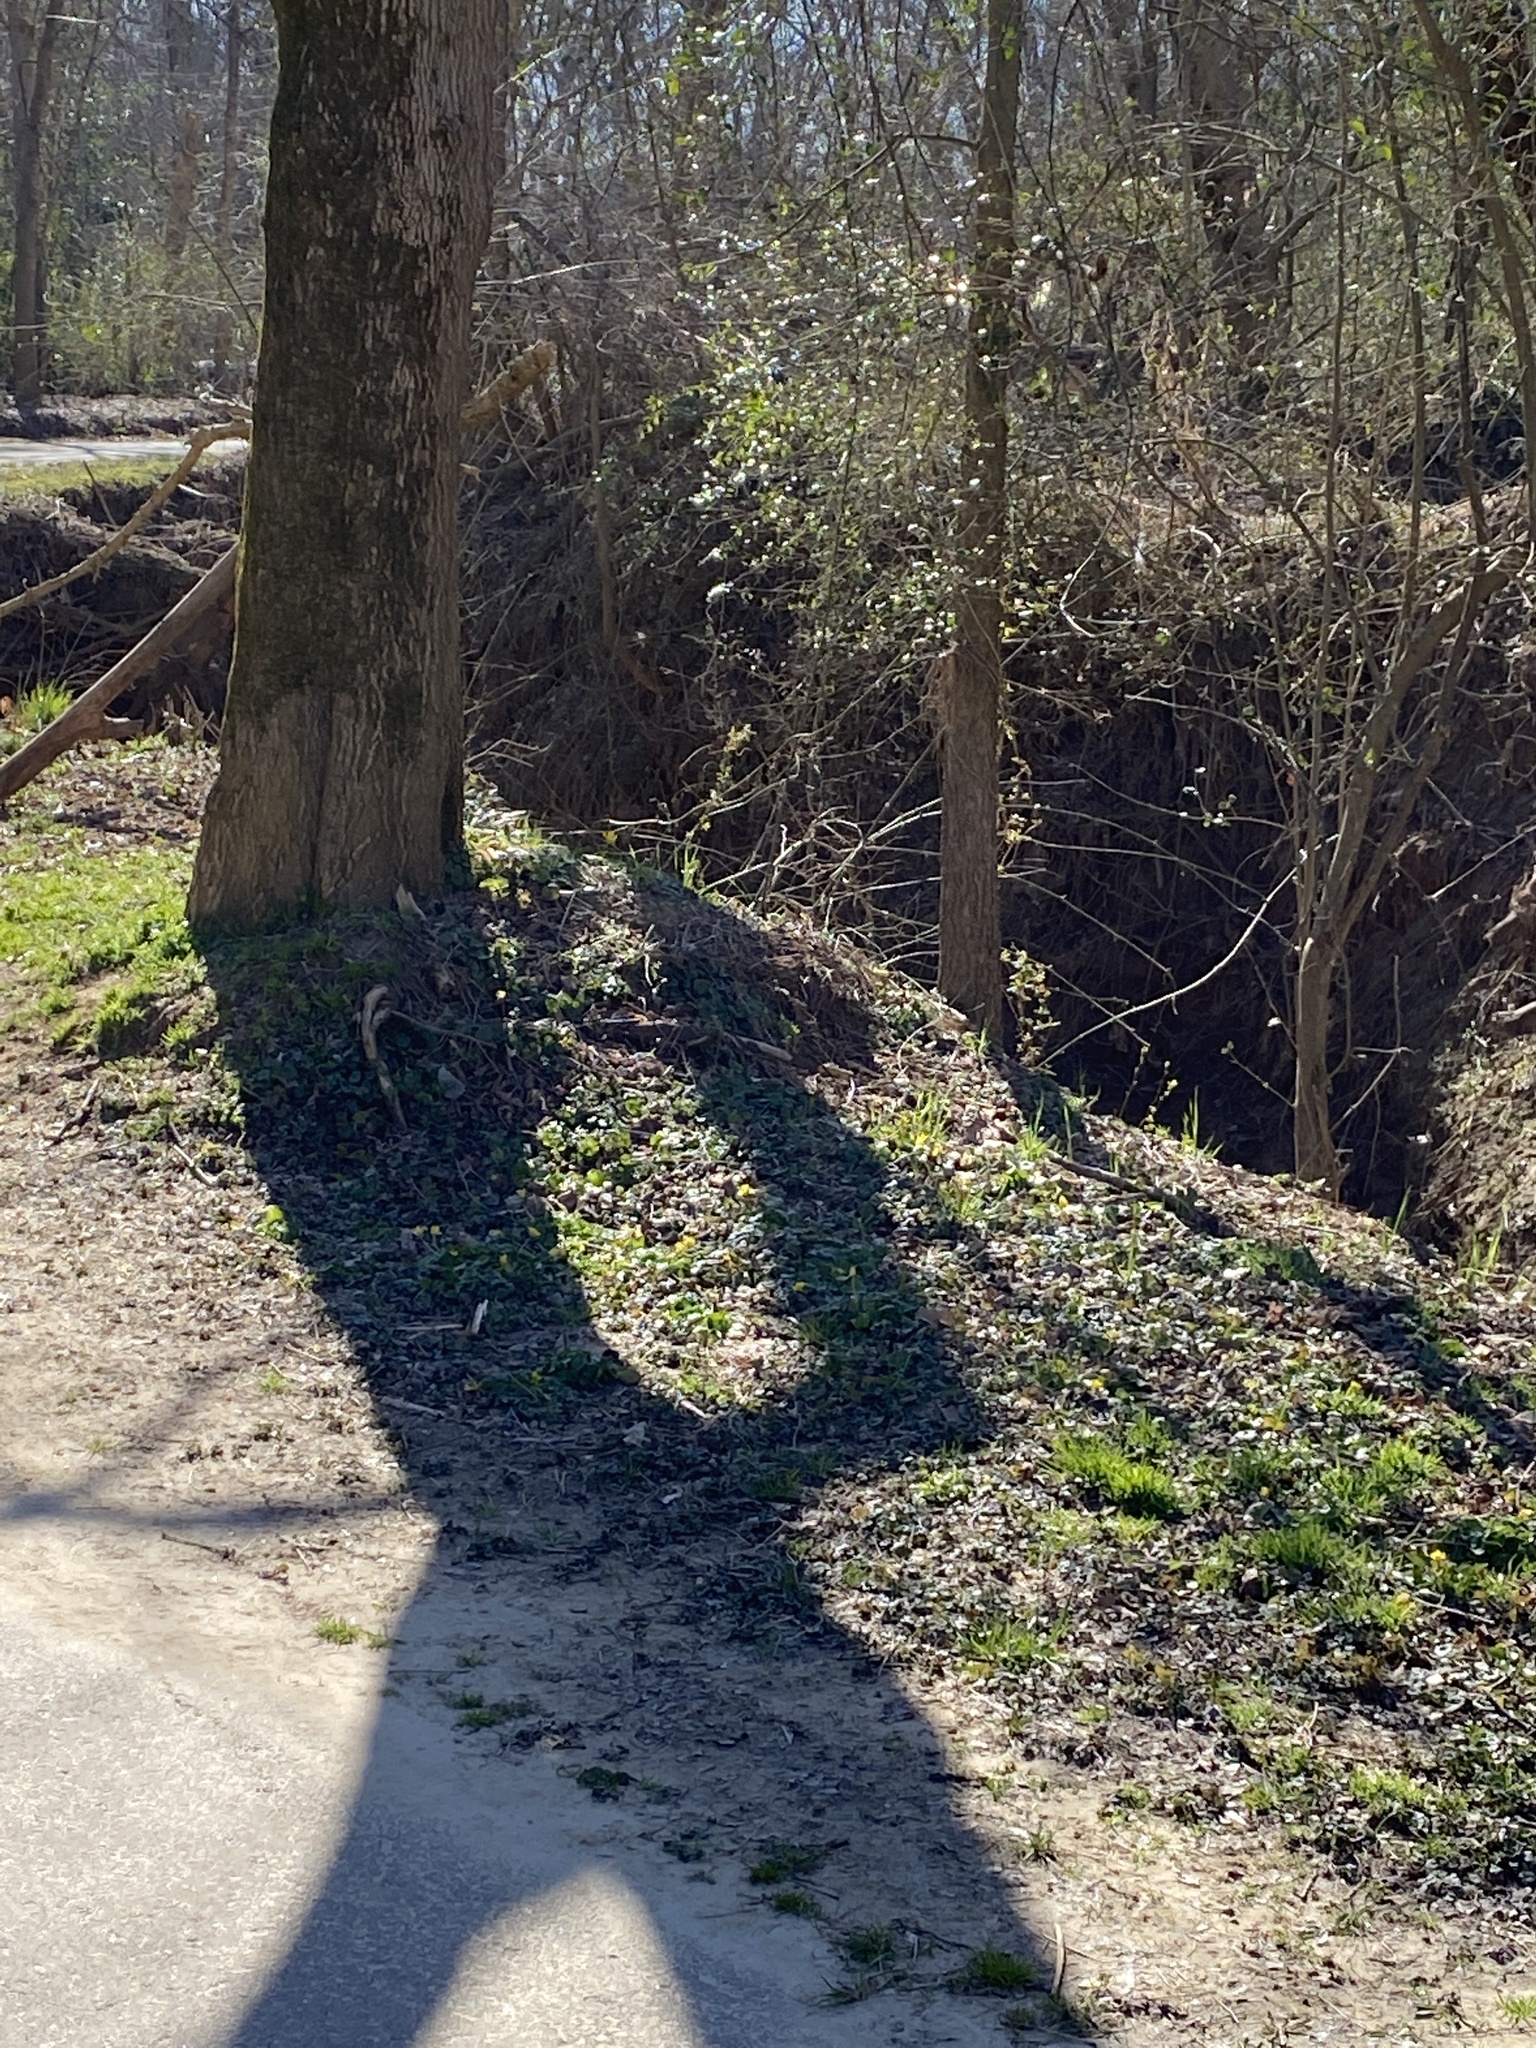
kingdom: Plantae
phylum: Tracheophyta
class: Magnoliopsida
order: Ranunculales
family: Ranunculaceae
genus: Ficaria
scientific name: Ficaria verna
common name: Lesser celandine
